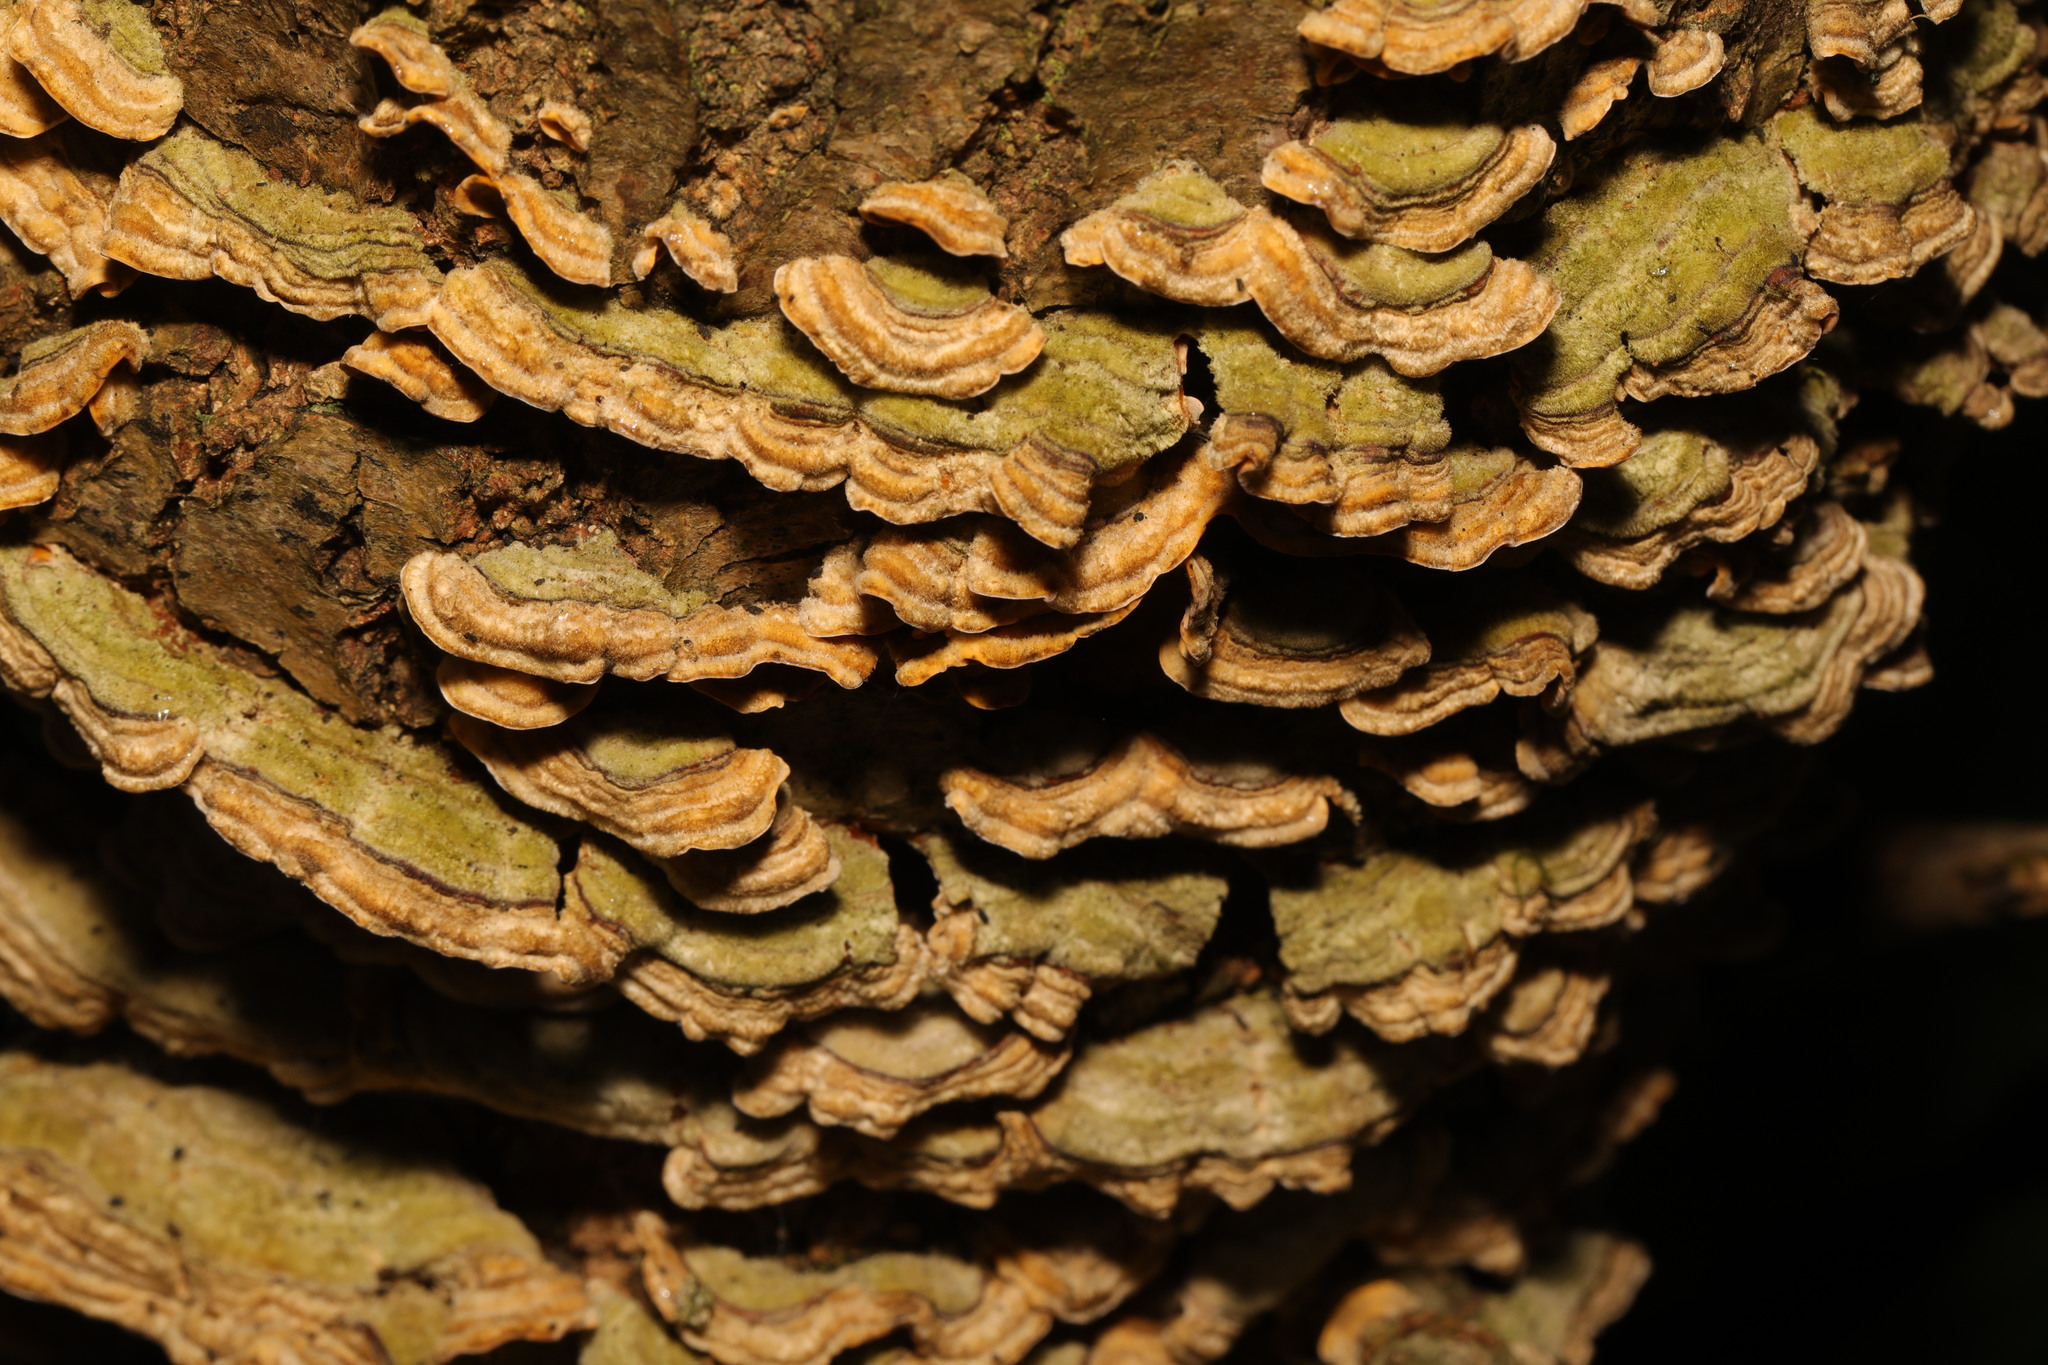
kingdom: Fungi
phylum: Basidiomycota
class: Agaricomycetes
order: Russulales
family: Stereaceae
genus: Stereum
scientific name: Stereum hirsutum
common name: Hairy curtain crust
